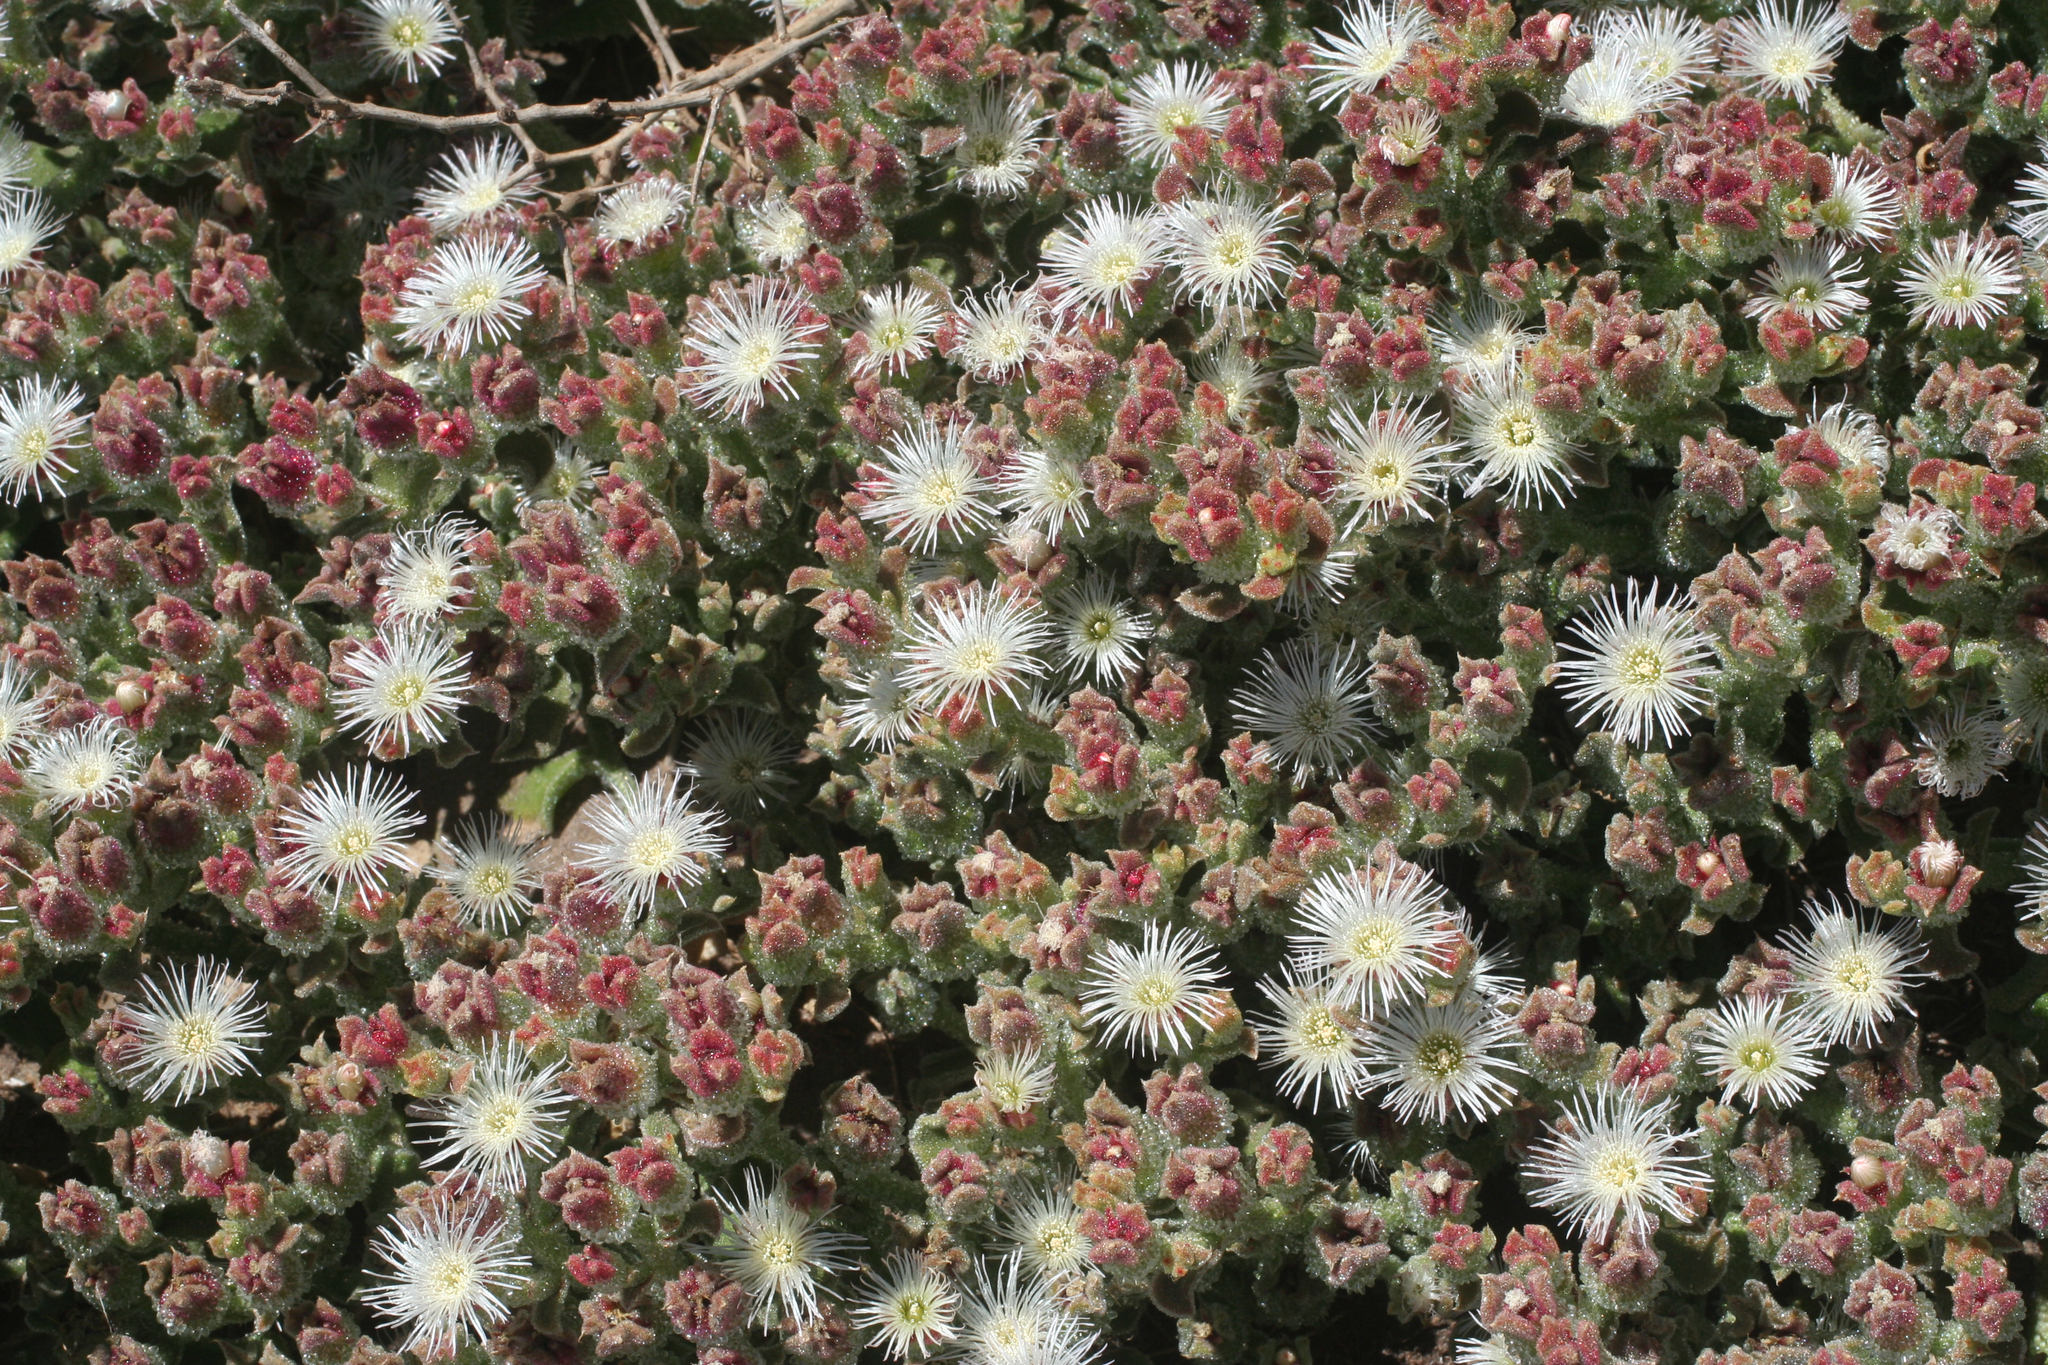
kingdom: Plantae
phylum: Tracheophyta
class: Magnoliopsida
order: Caryophyllales
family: Aizoaceae
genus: Mesembryanthemum
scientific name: Mesembryanthemum crystallinum
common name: Common iceplant
